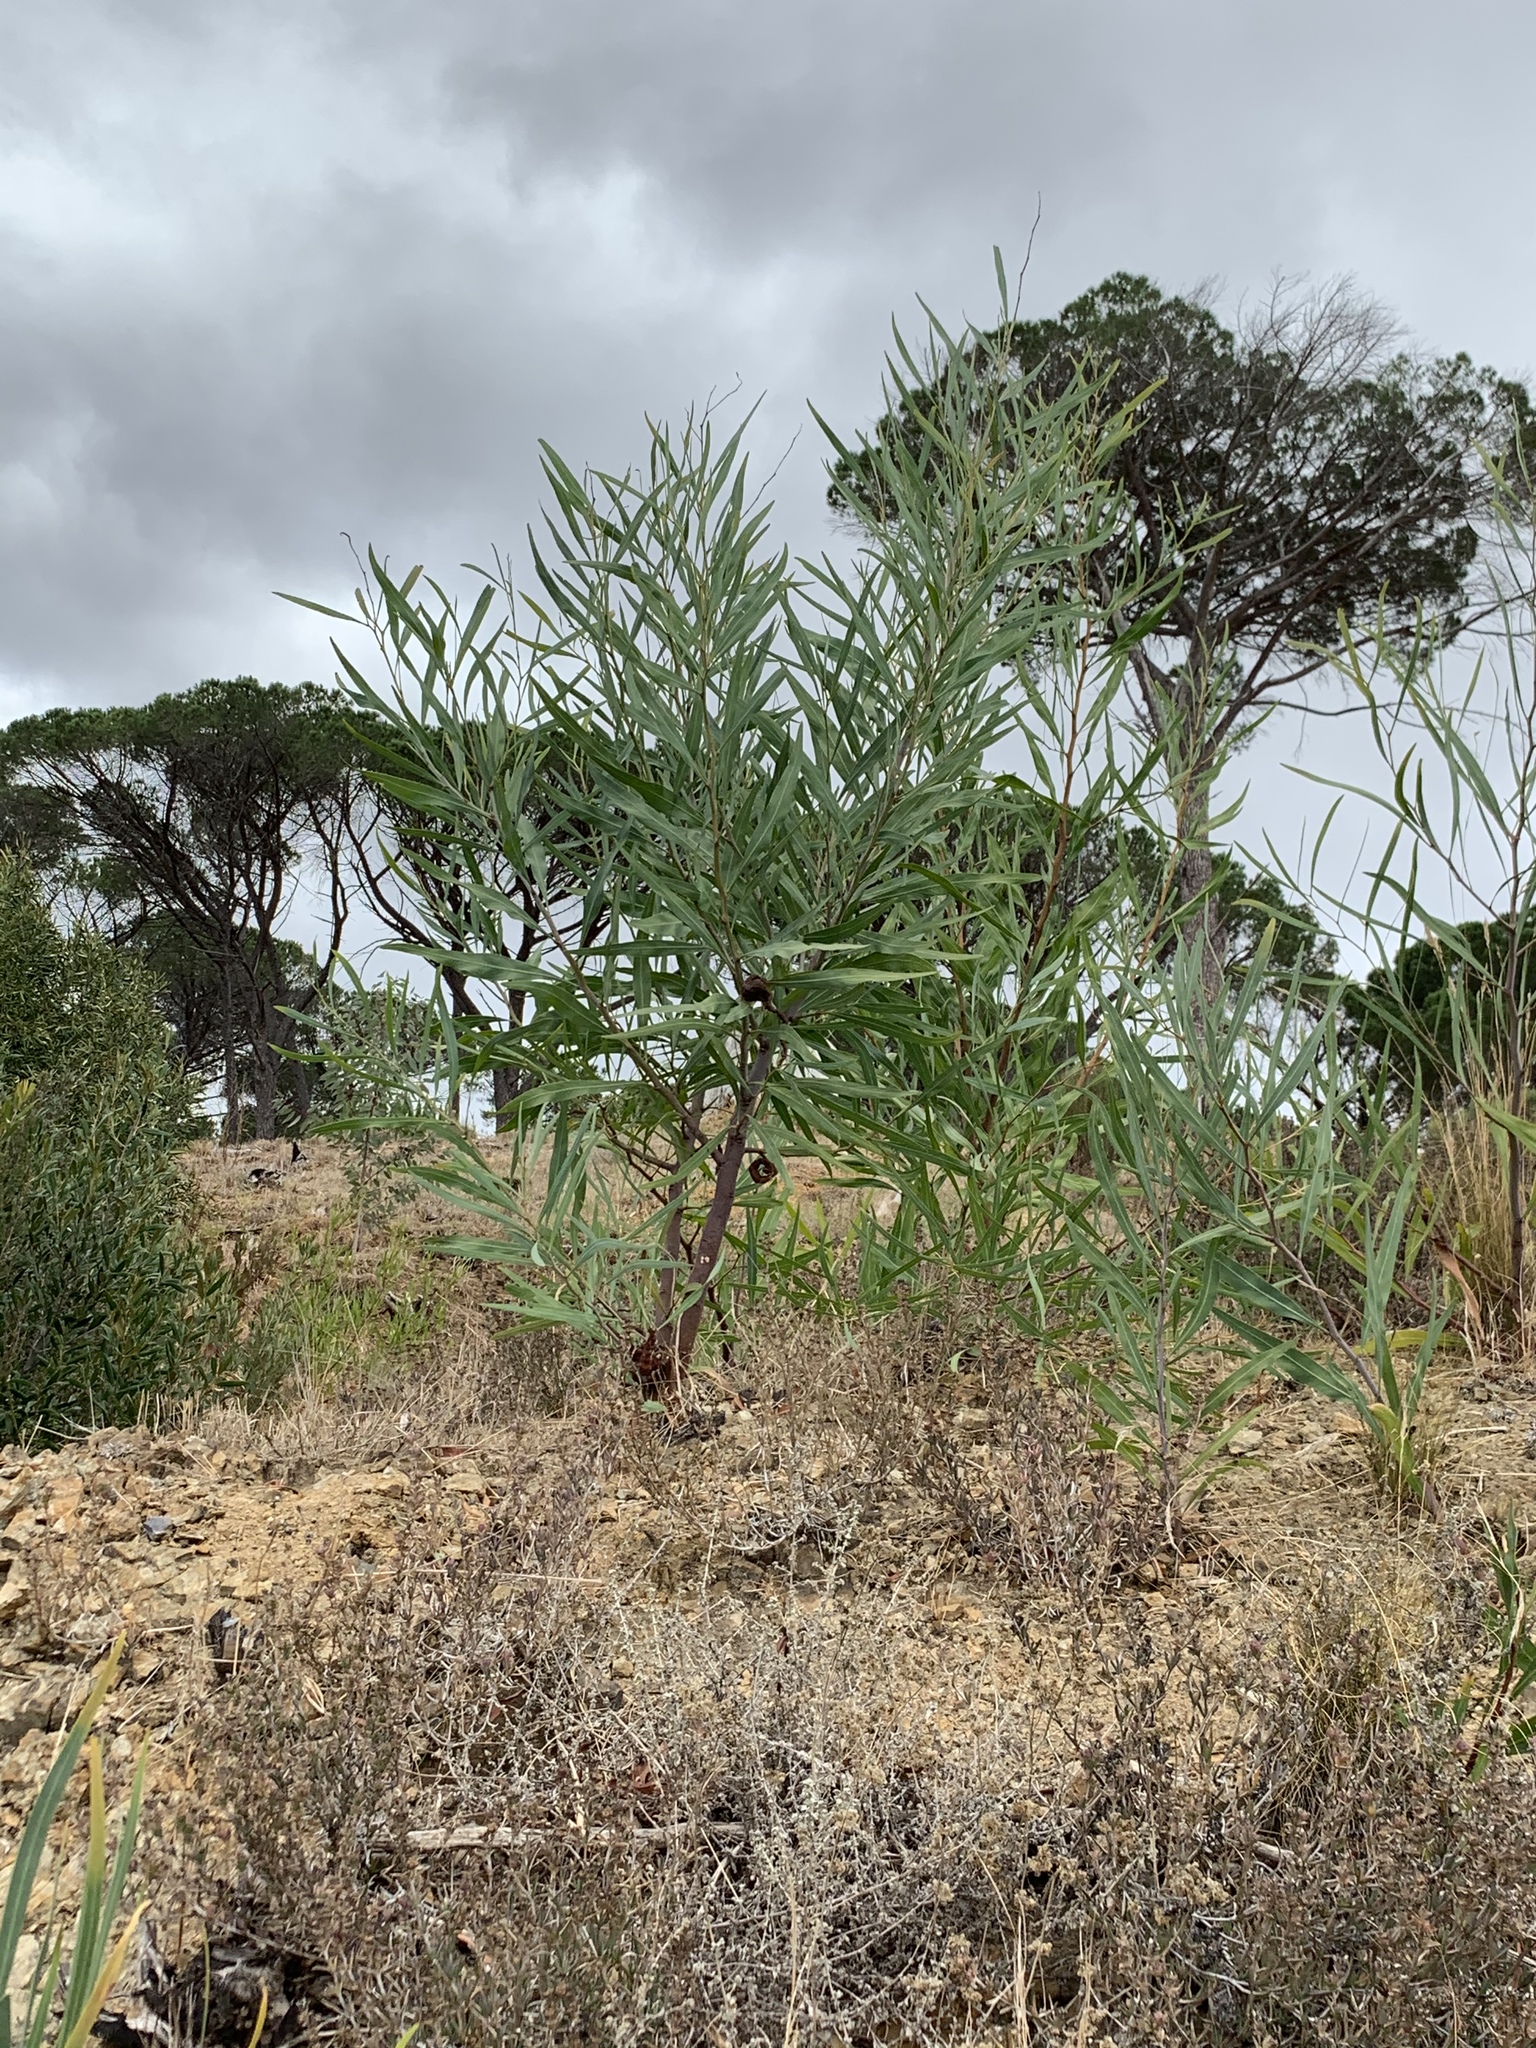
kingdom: Plantae
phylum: Tracheophyta
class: Magnoliopsida
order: Fabales
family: Fabaceae
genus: Acacia
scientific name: Acacia saligna
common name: Orange wattle
